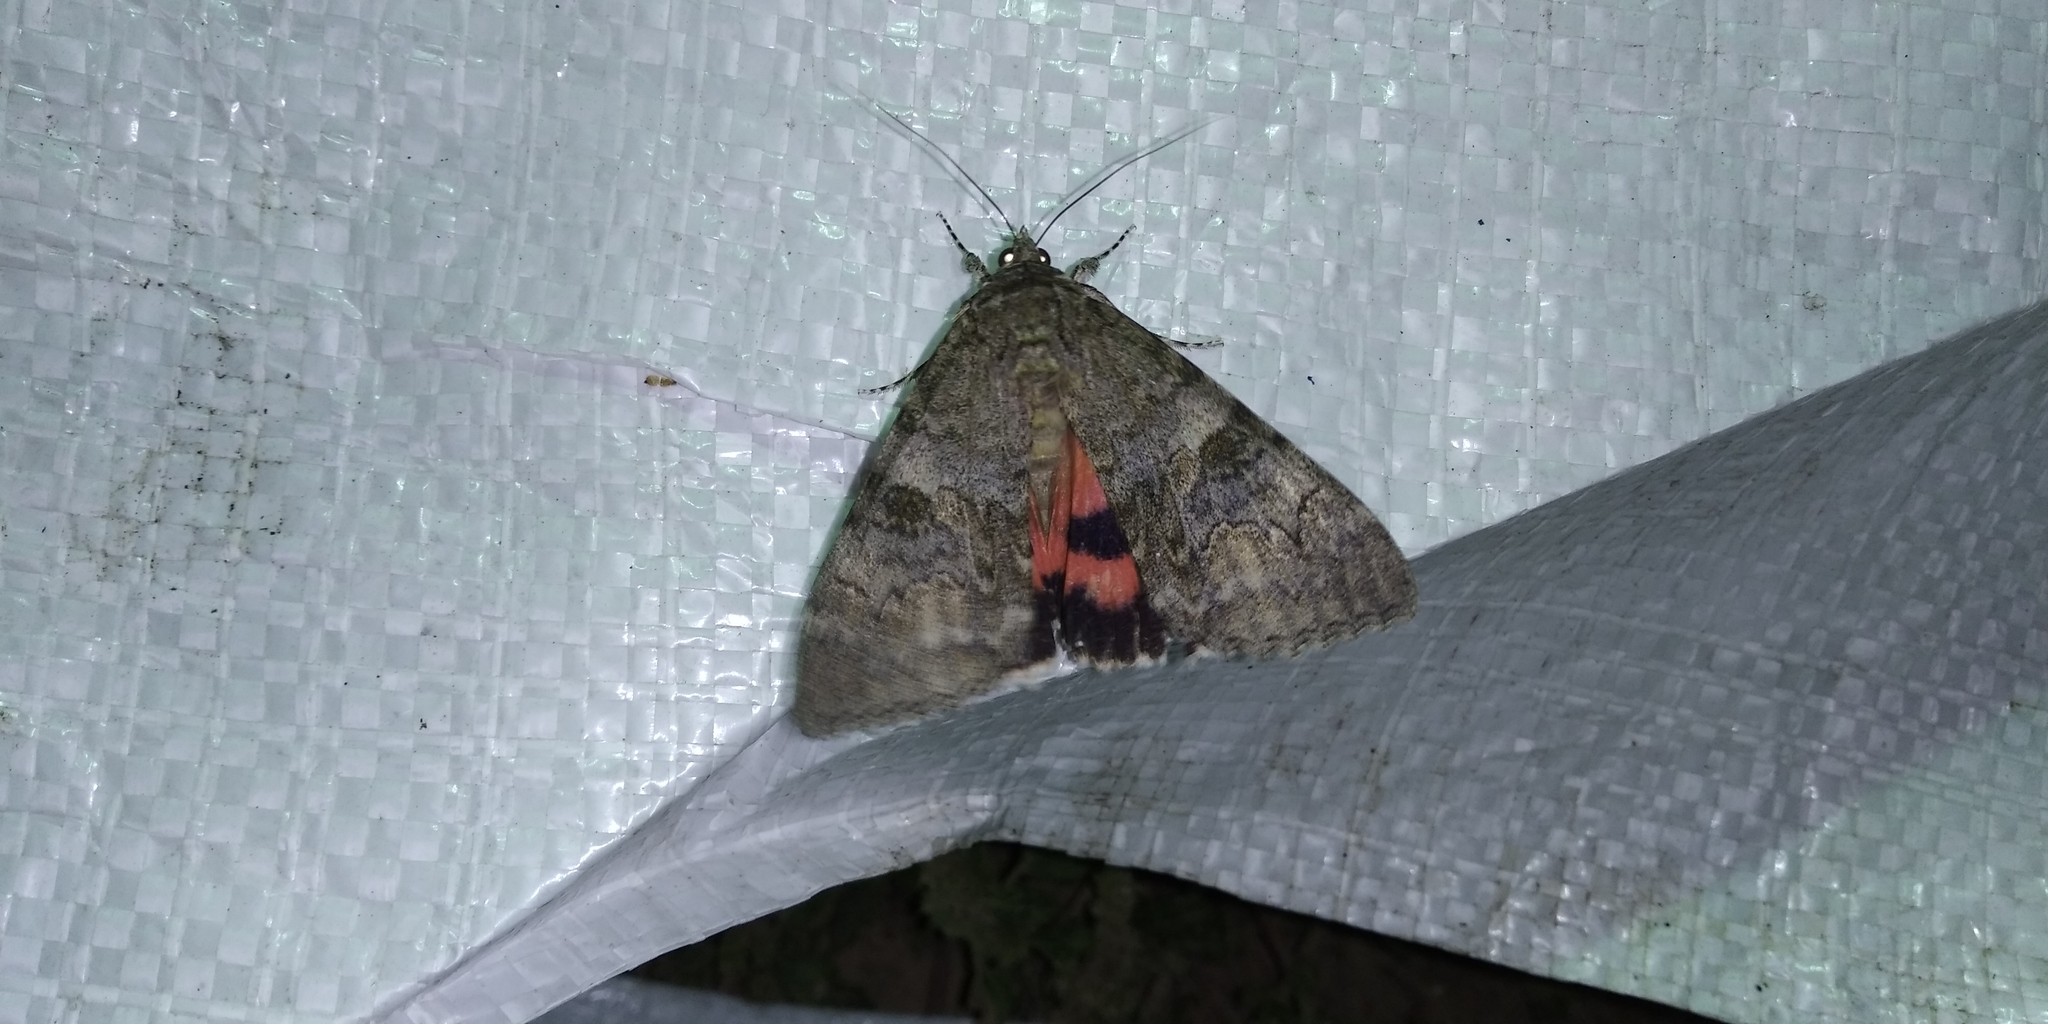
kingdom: Animalia
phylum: Arthropoda
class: Insecta
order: Lepidoptera
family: Erebidae
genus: Catocala
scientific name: Catocala nupta
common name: Red underwing
